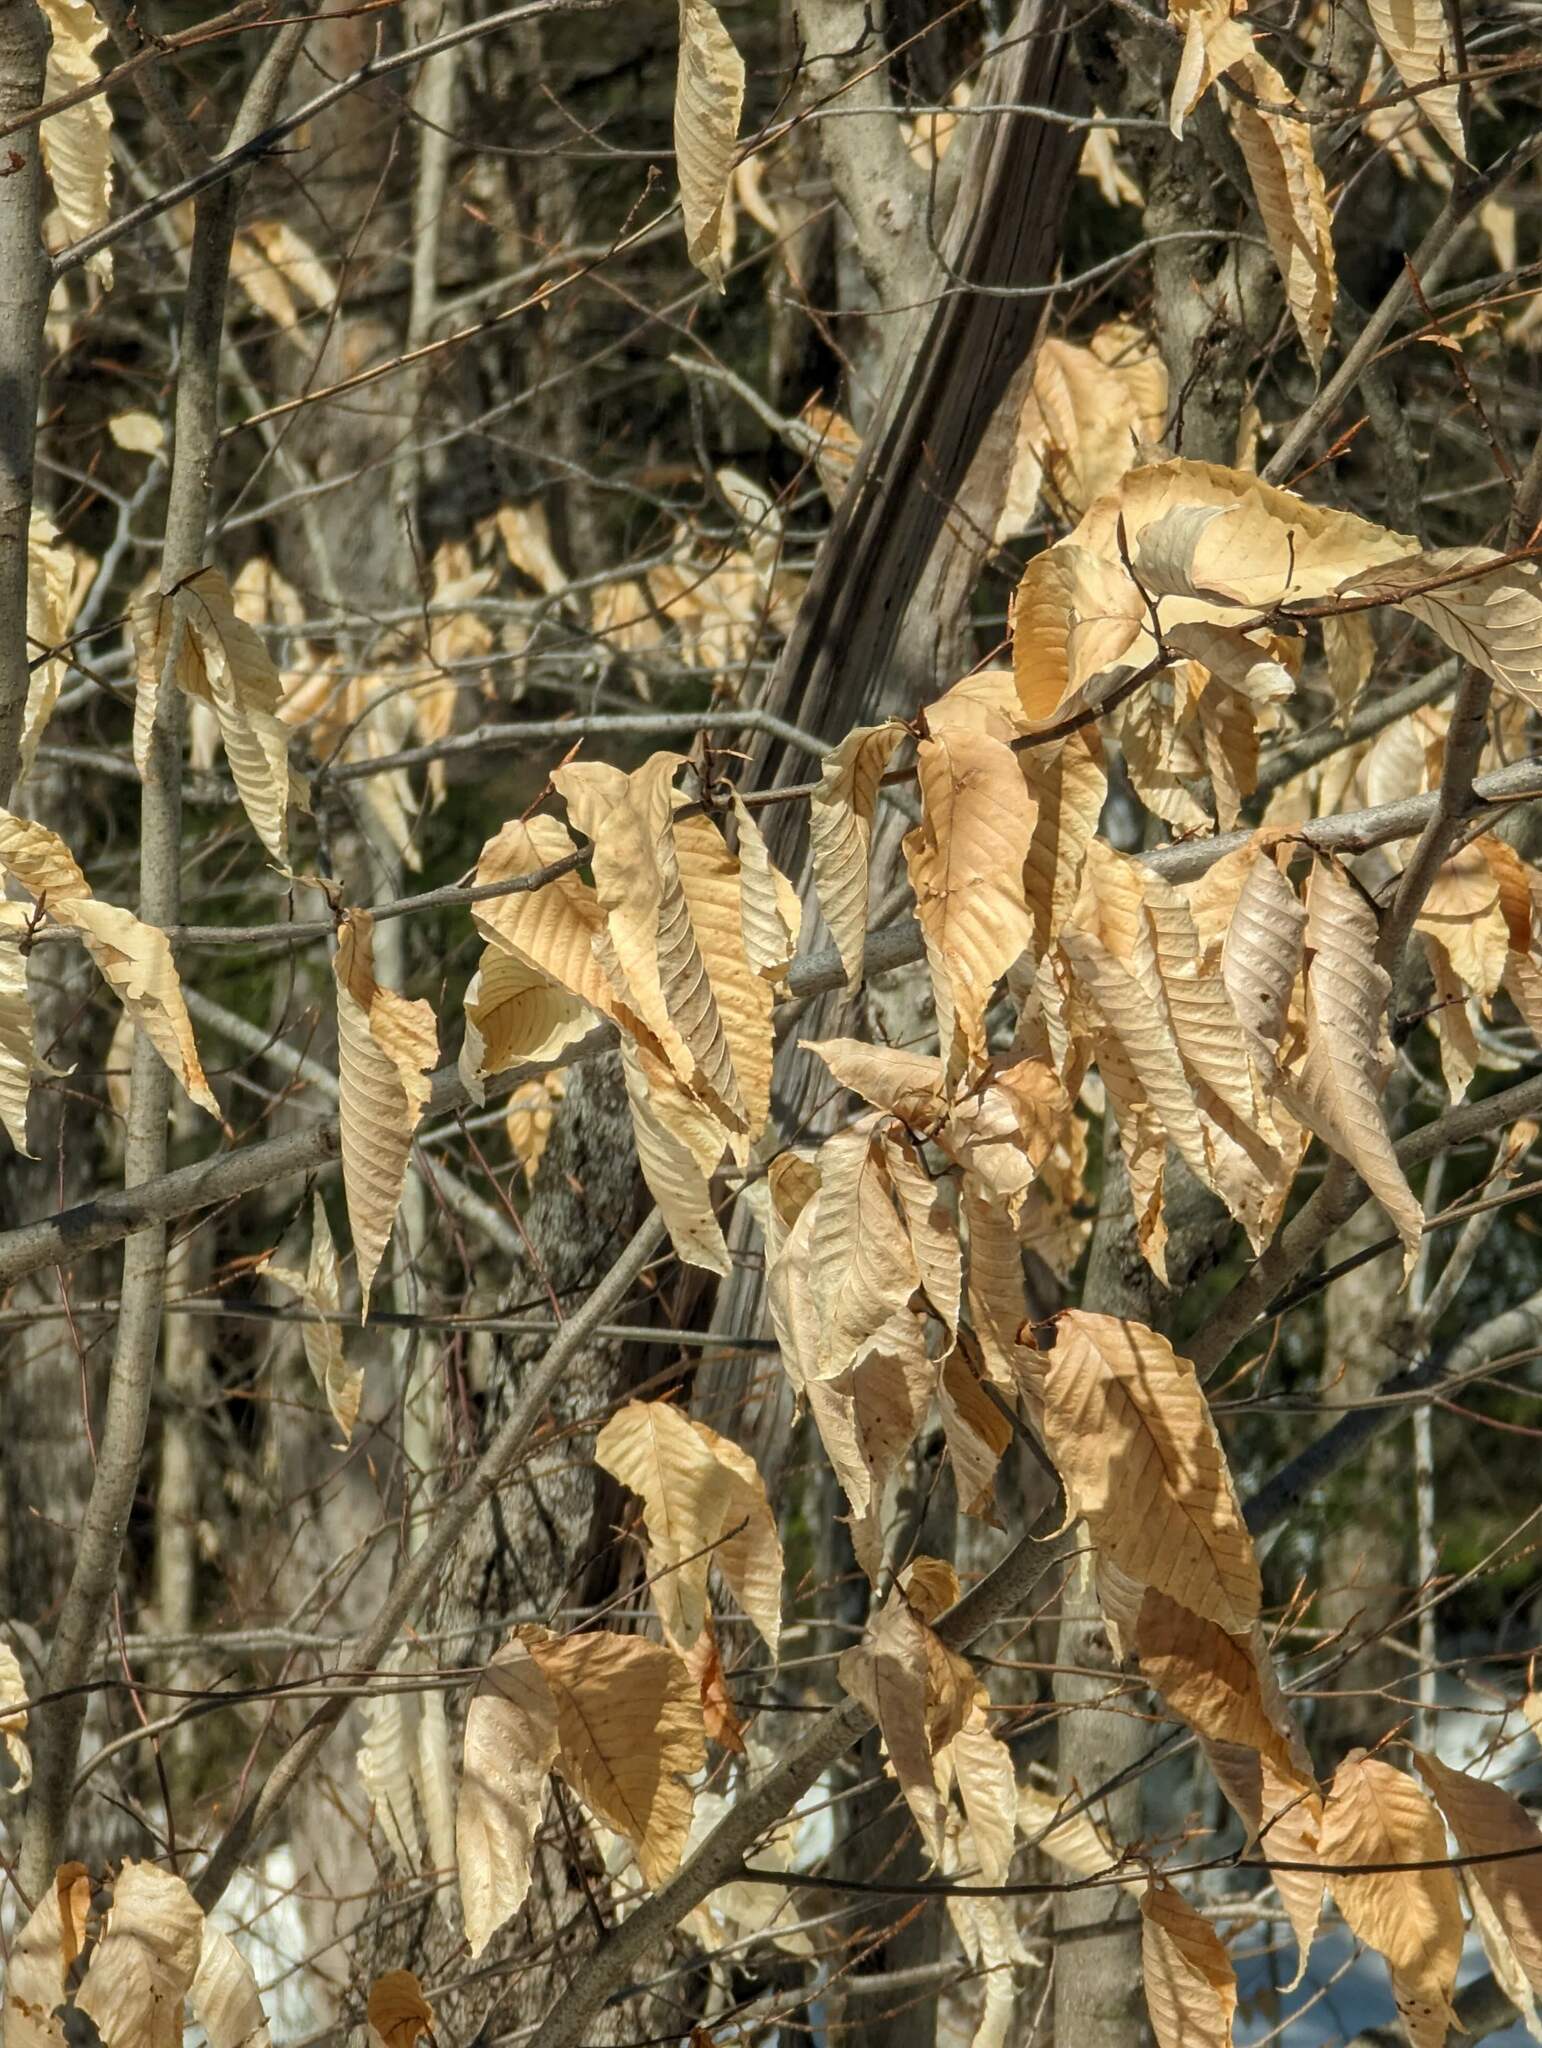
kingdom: Plantae
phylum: Tracheophyta
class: Magnoliopsida
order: Fagales
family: Fagaceae
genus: Fagus
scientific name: Fagus grandifolia
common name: American beech
